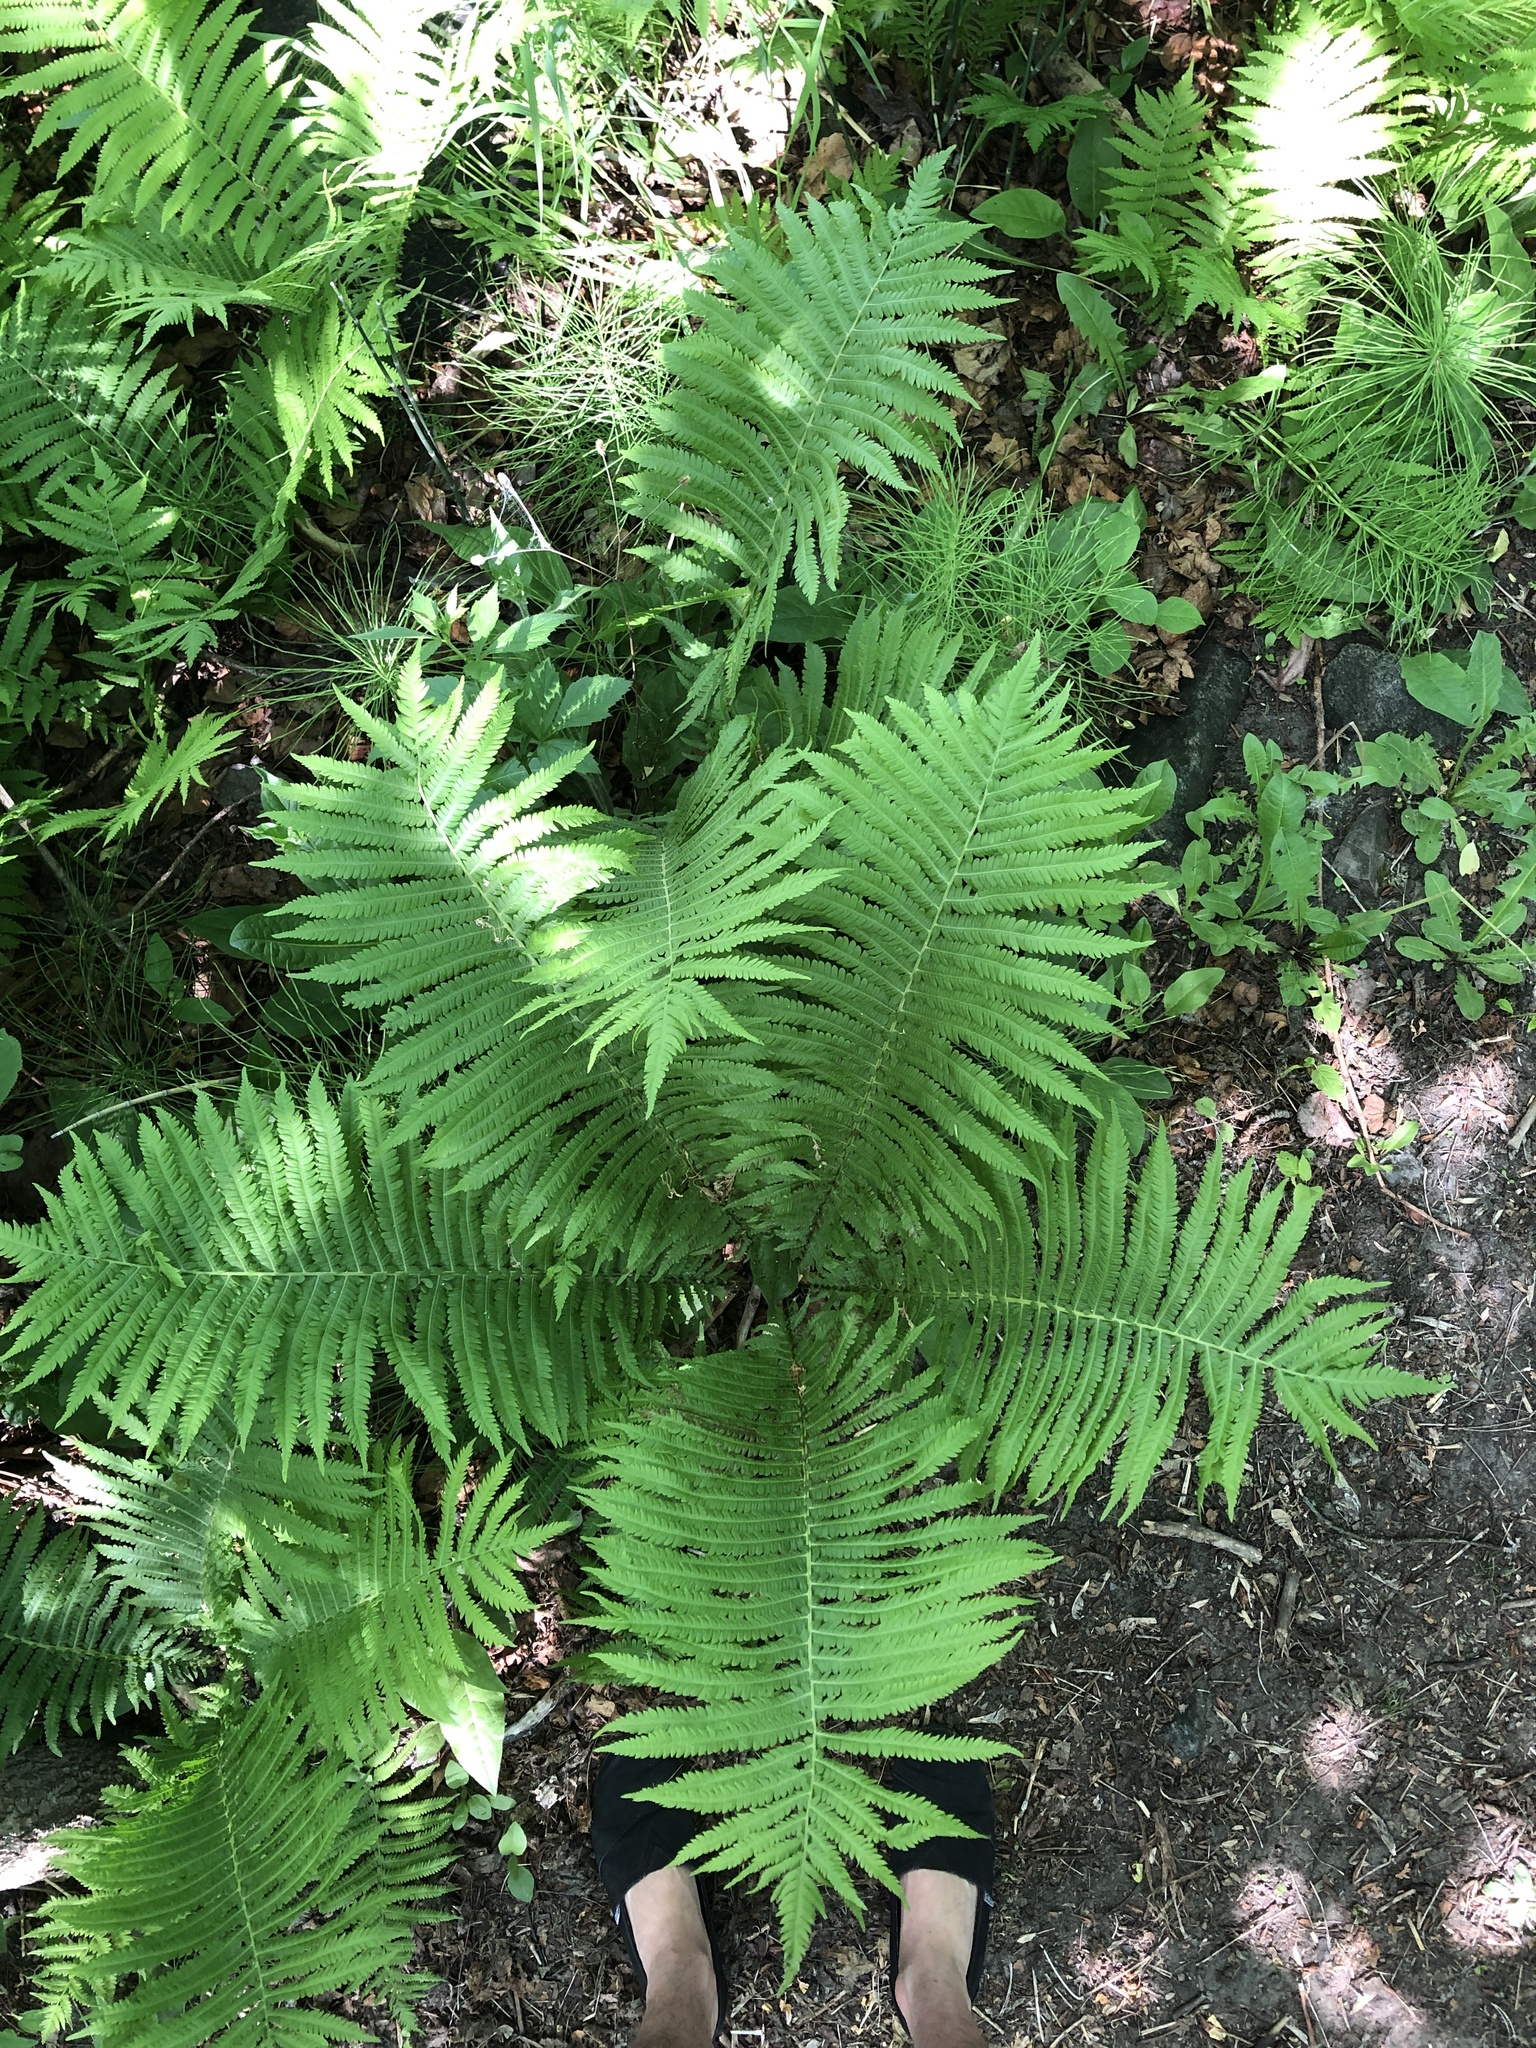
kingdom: Plantae
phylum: Tracheophyta
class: Polypodiopsida
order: Polypodiales
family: Onocleaceae
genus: Matteuccia
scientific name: Matteuccia struthiopteris
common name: Ostrich fern
